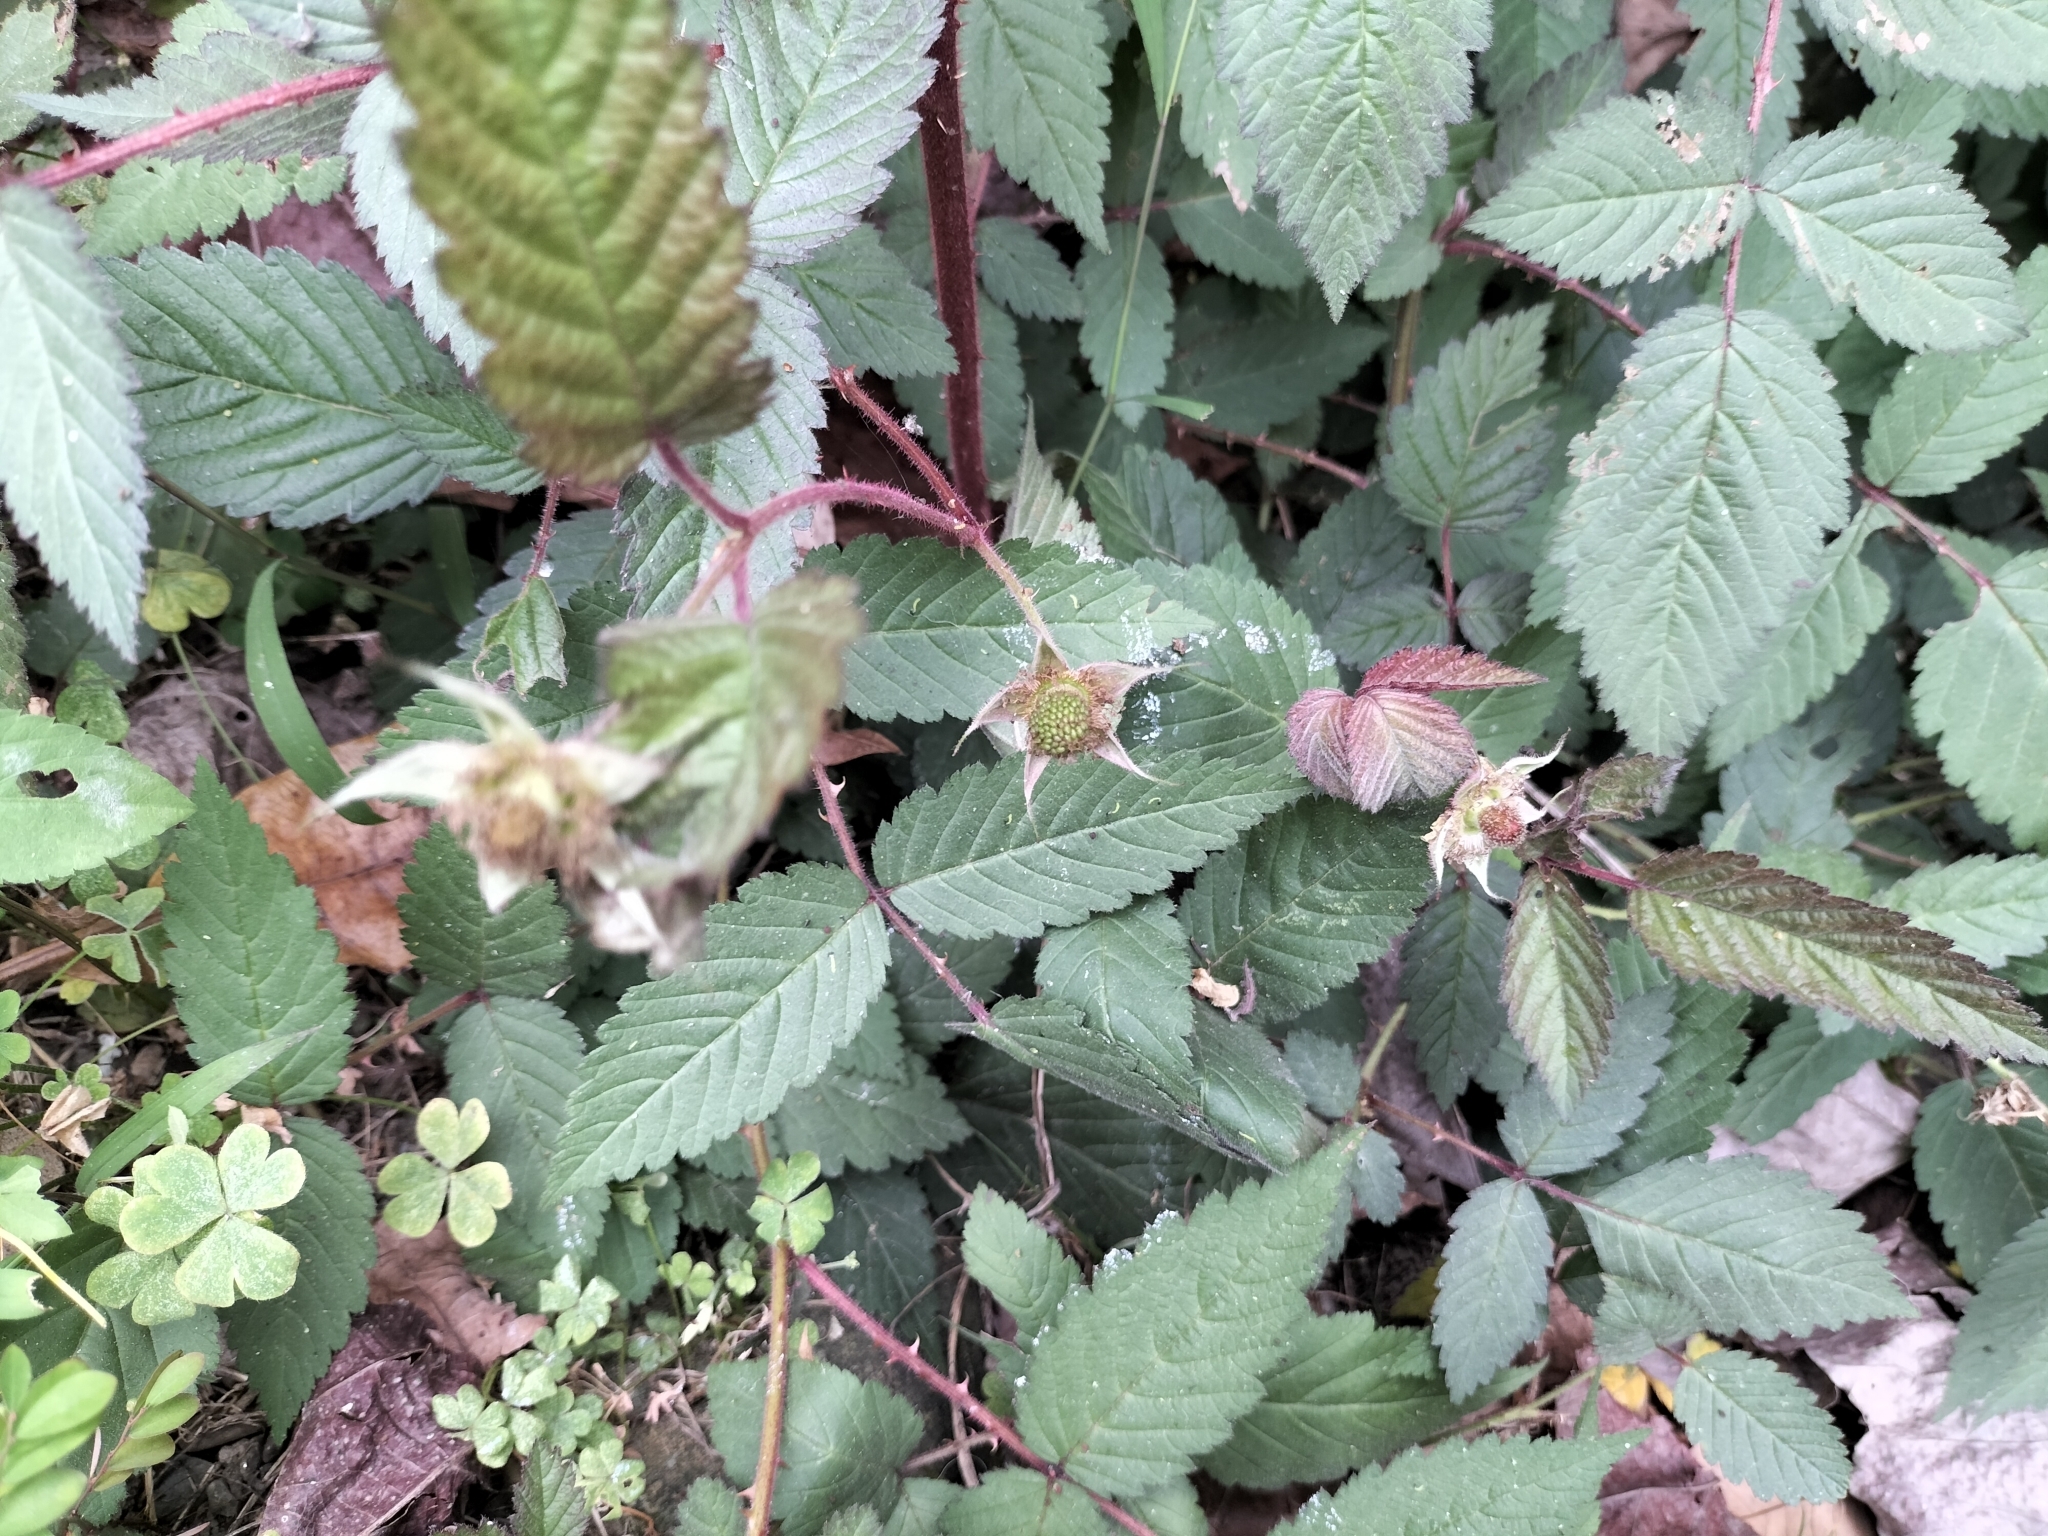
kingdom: Plantae
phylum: Tracheophyta
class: Magnoliopsida
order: Rosales
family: Rosaceae
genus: Rubus
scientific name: Rubus croceacanthus
